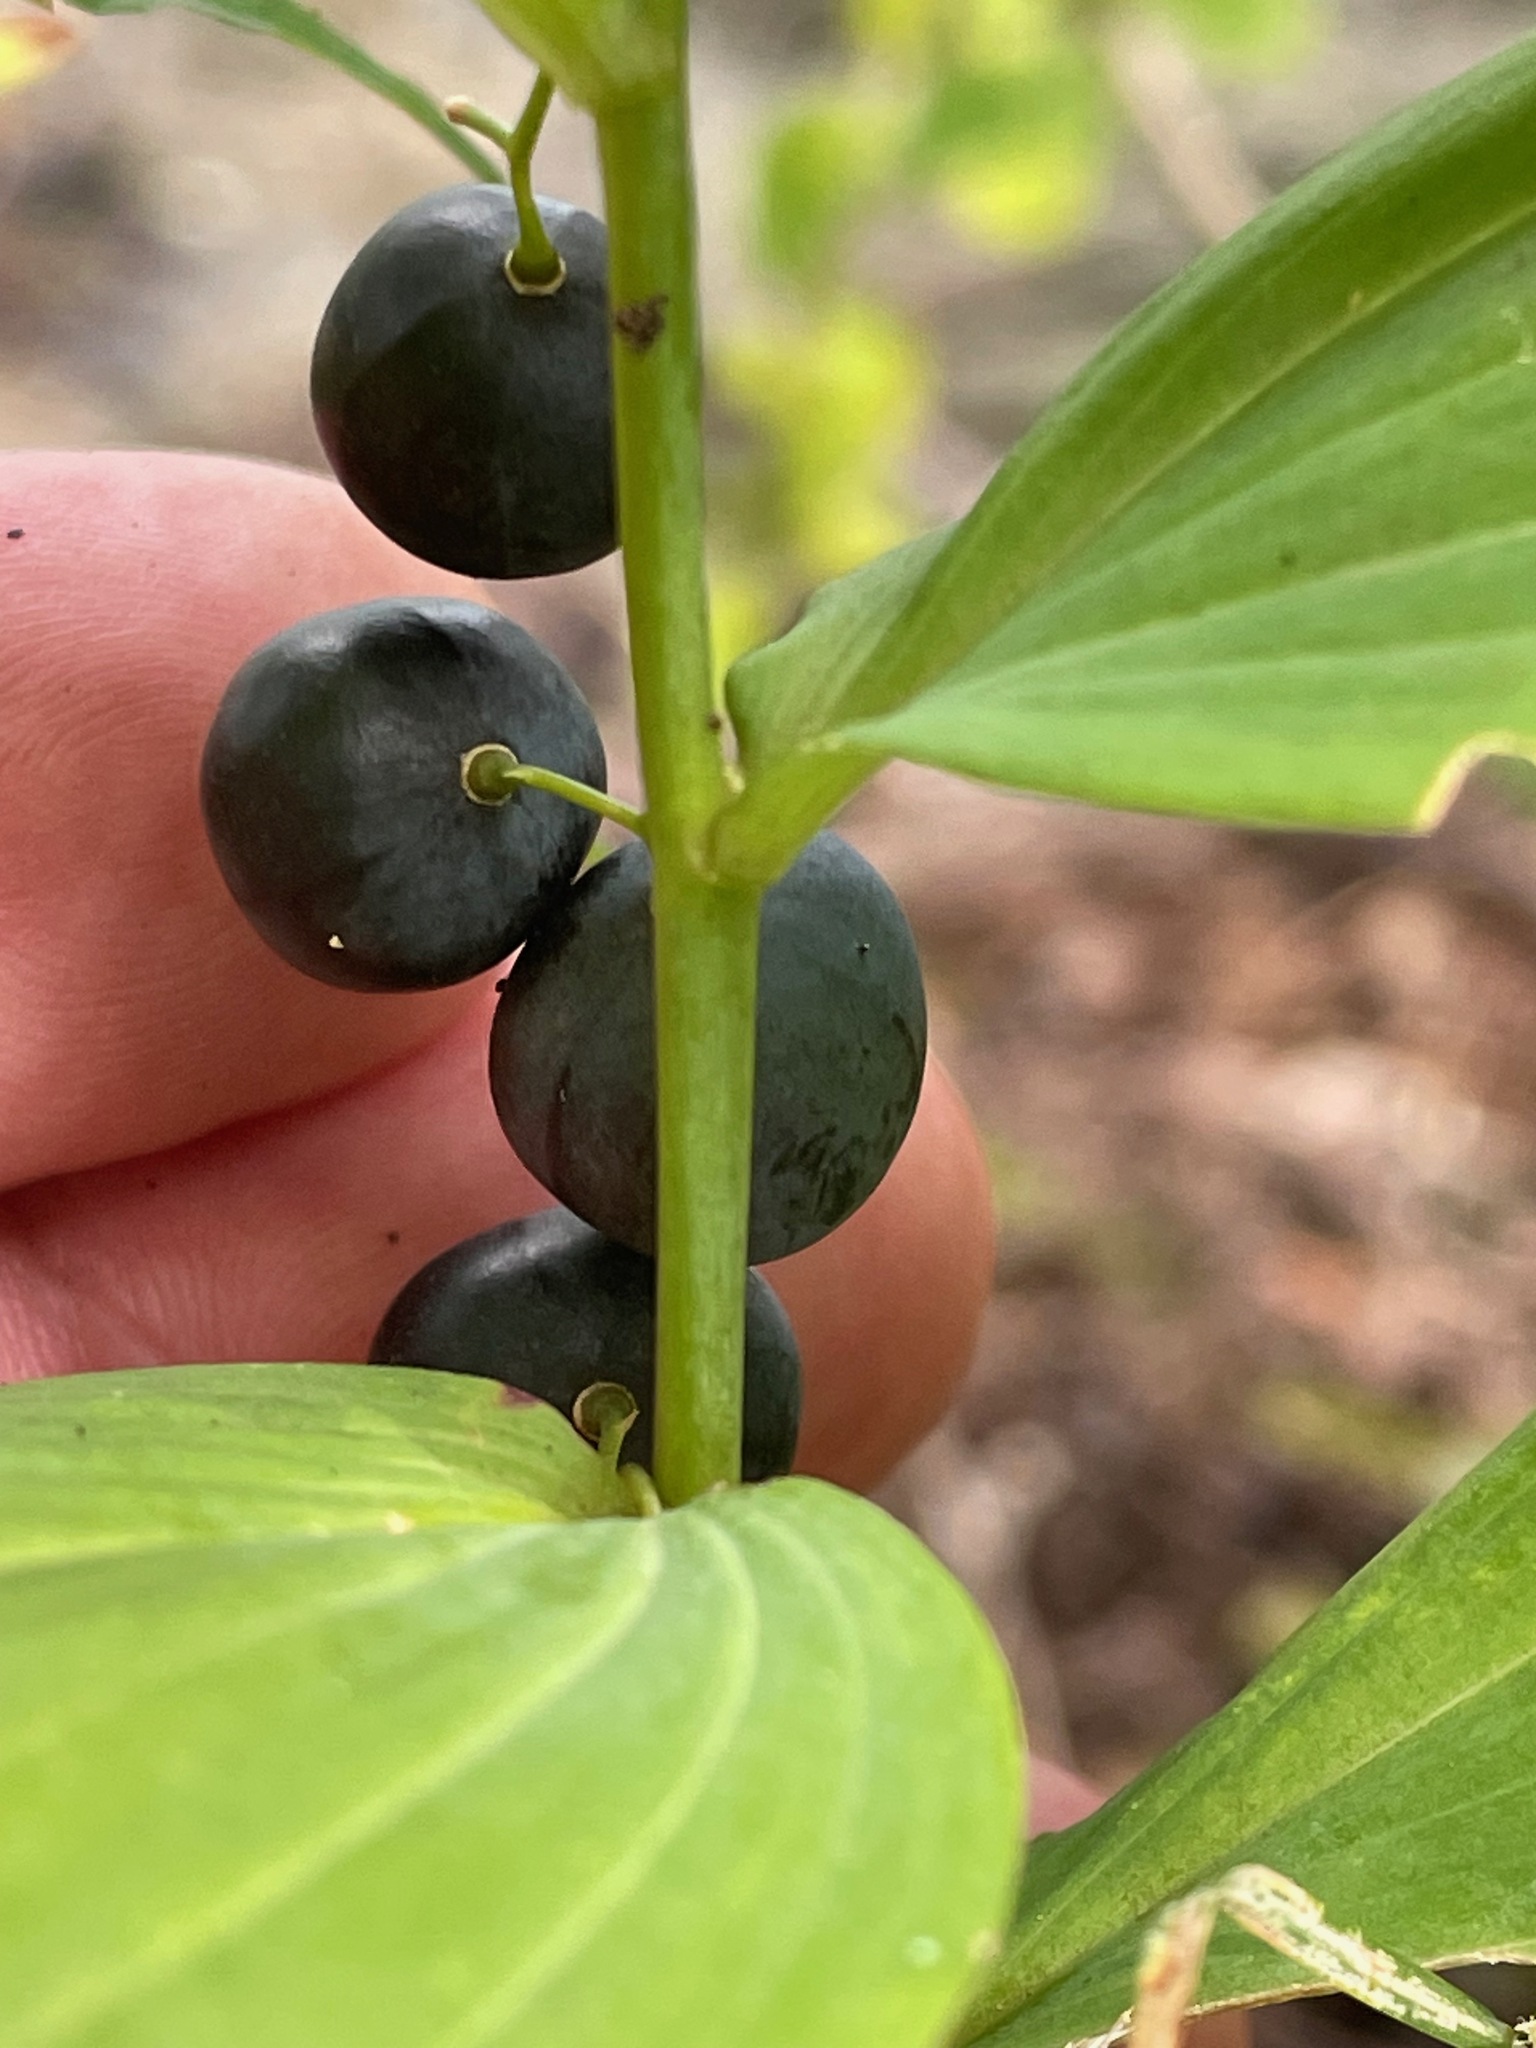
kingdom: Plantae
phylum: Tracheophyta
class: Liliopsida
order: Asparagales
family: Asparagaceae
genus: Polygonatum
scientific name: Polygonatum pubescens
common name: Downy solomon's seal
